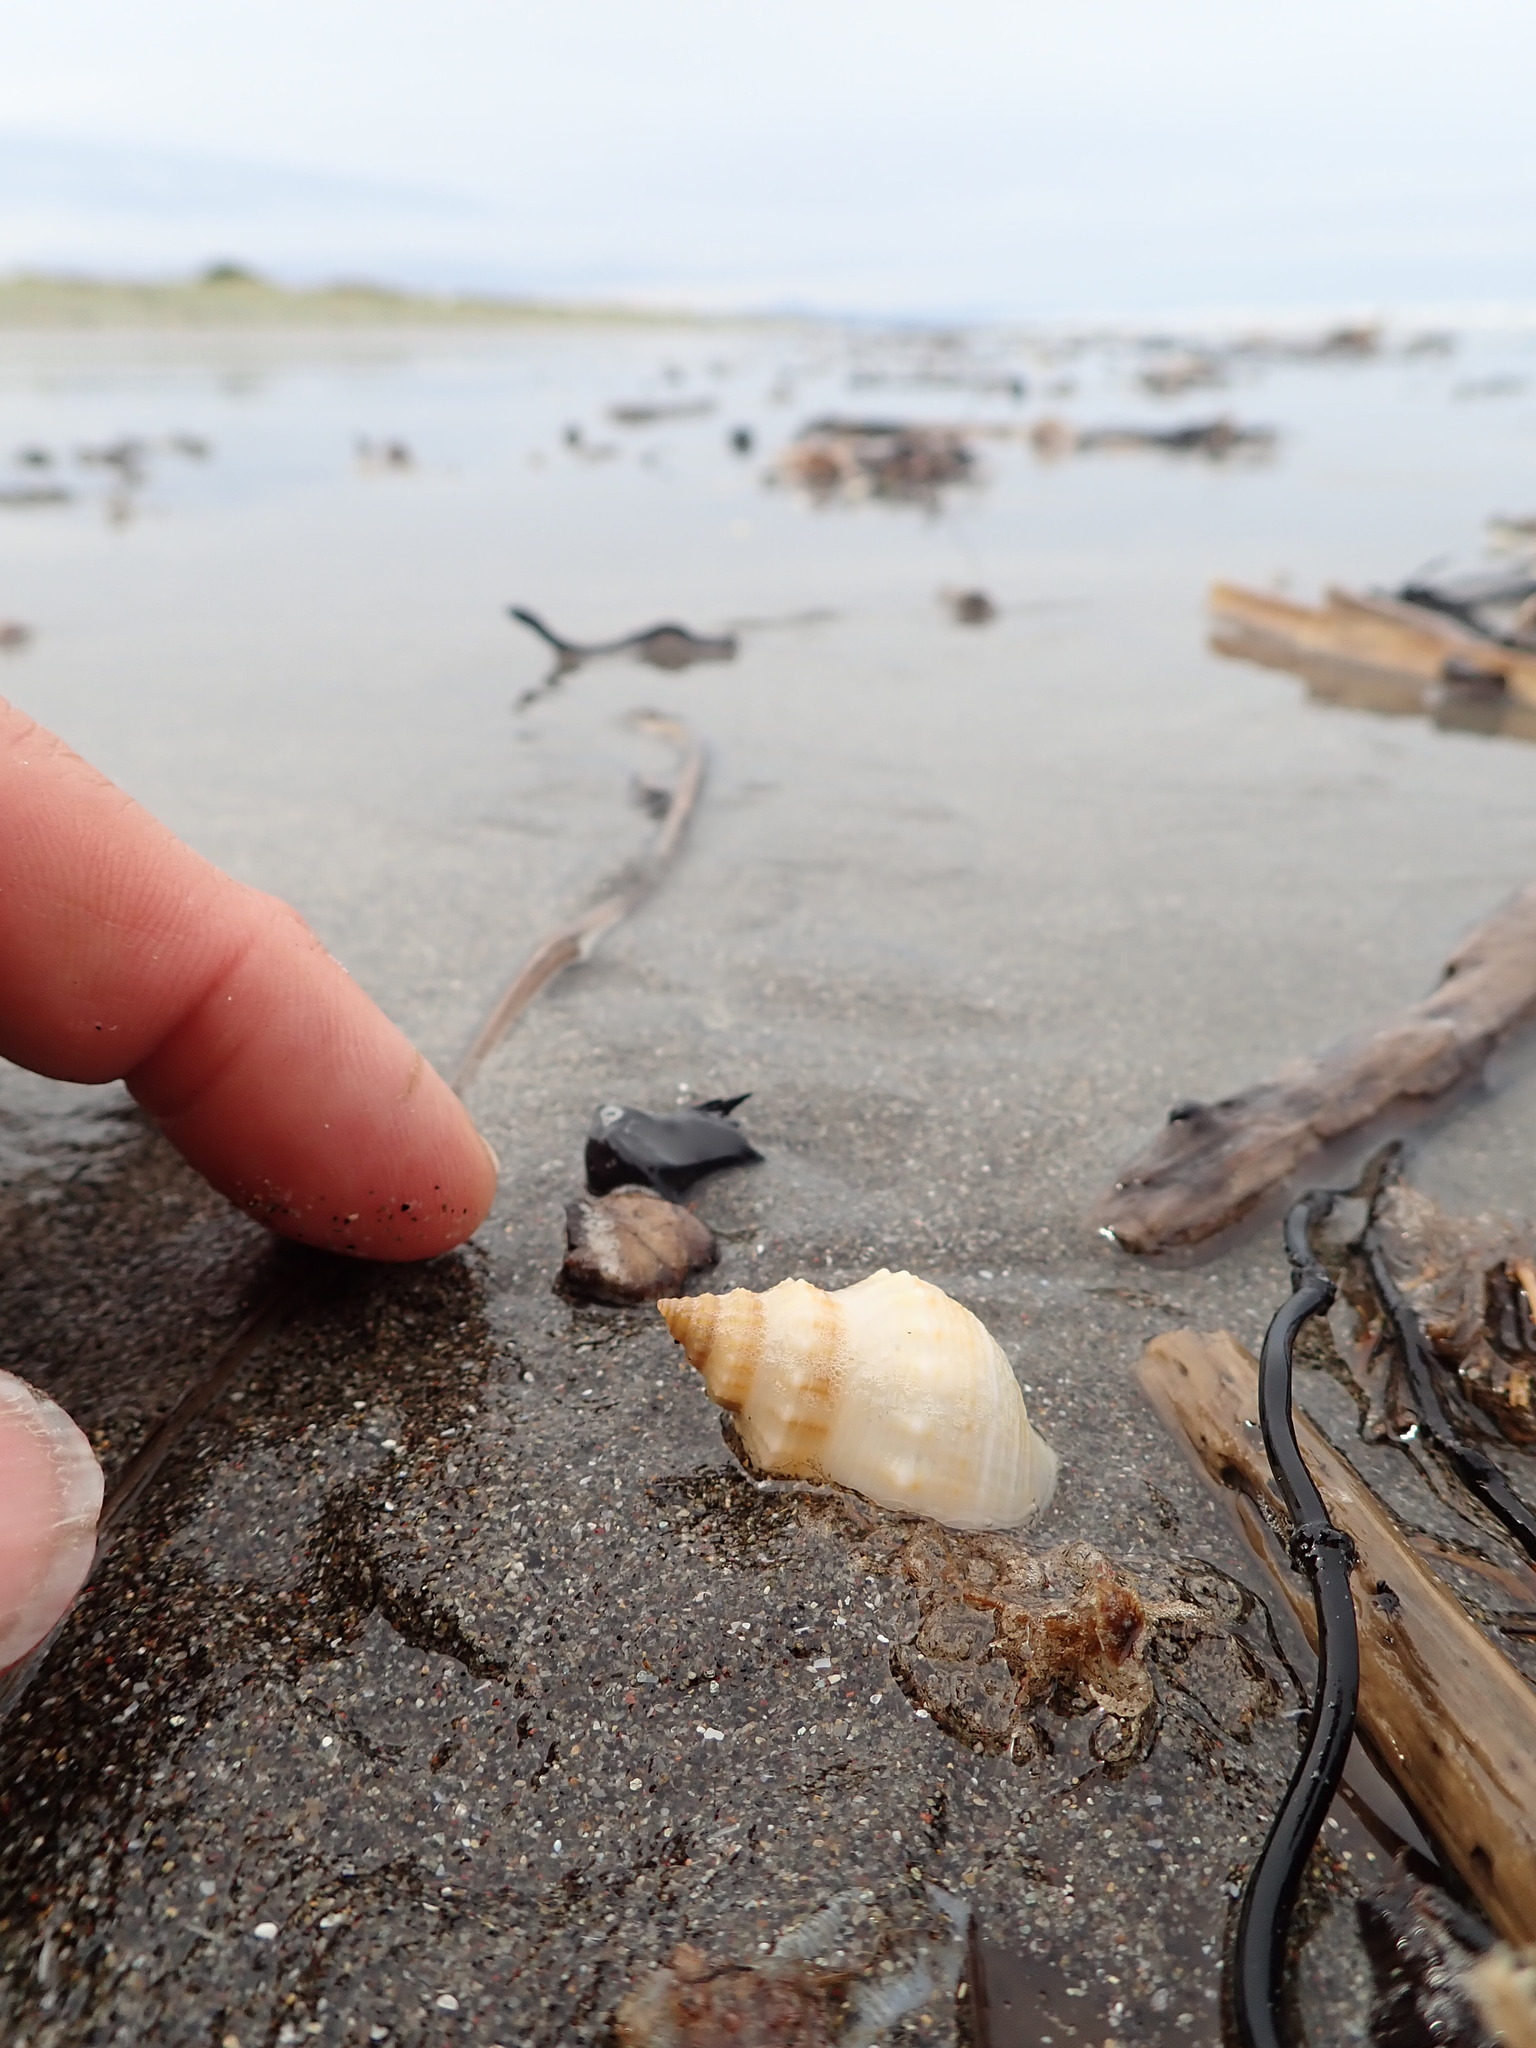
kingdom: Animalia
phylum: Mollusca
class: Gastropoda
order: Neogastropoda
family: Prosiphonidae
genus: Austrofusus
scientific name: Austrofusus glans
